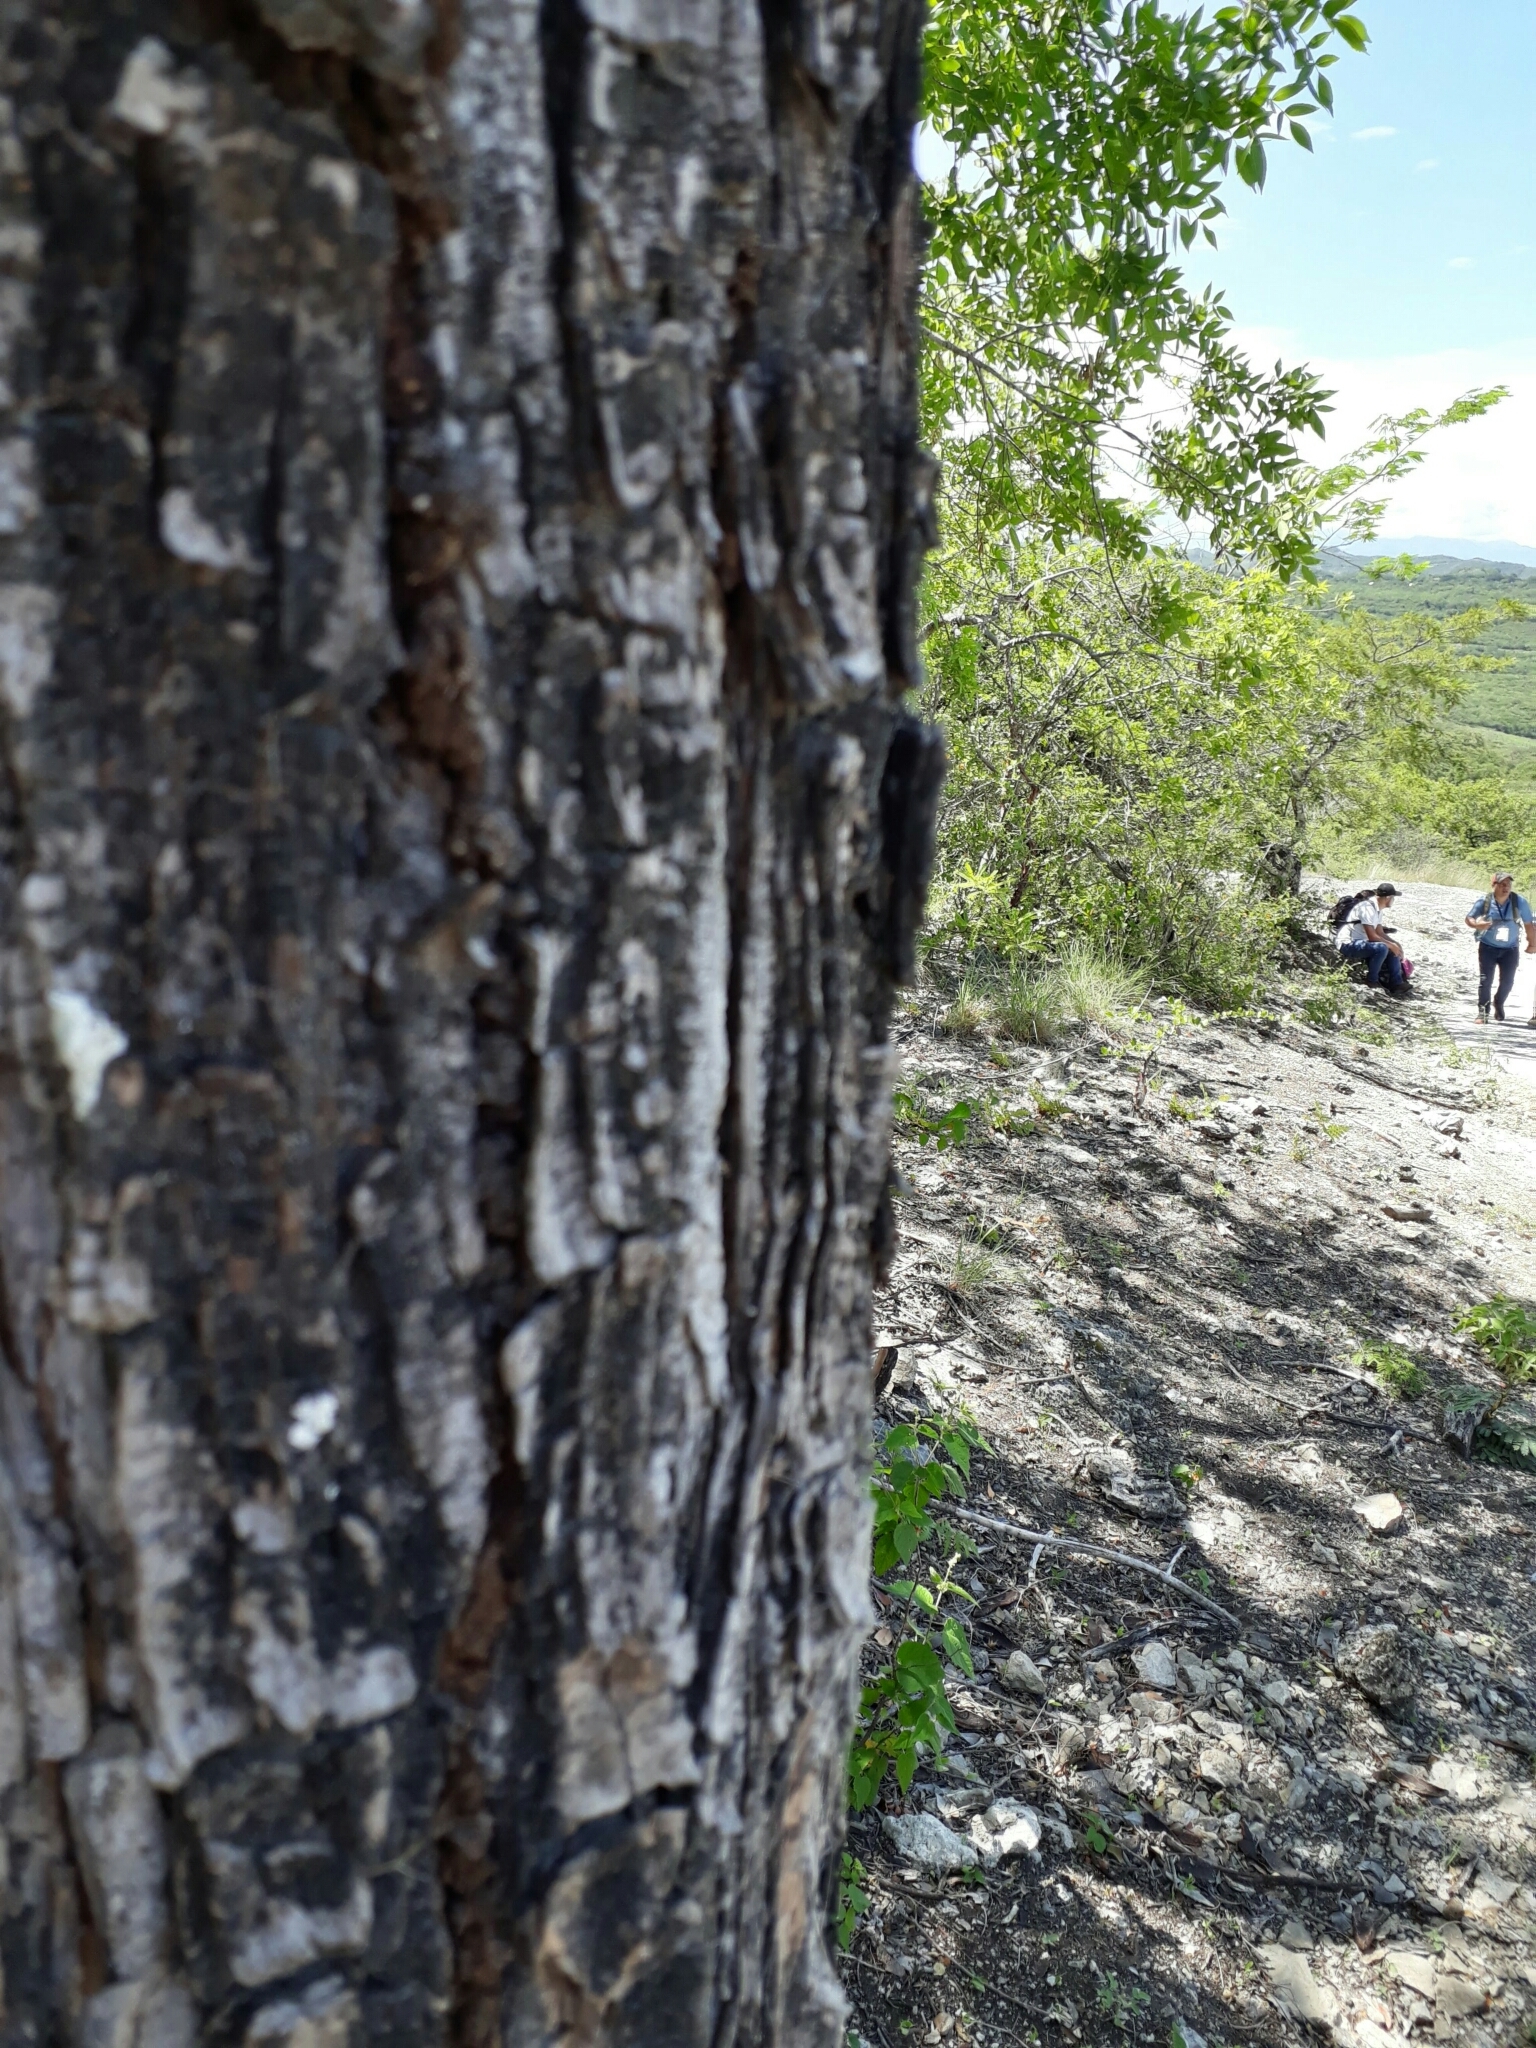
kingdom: Plantae
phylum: Tracheophyta
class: Magnoliopsida
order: Sapindales
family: Meliaceae
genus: Swietenia
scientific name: Swietenia humilis
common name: Pacific coast mahogany
